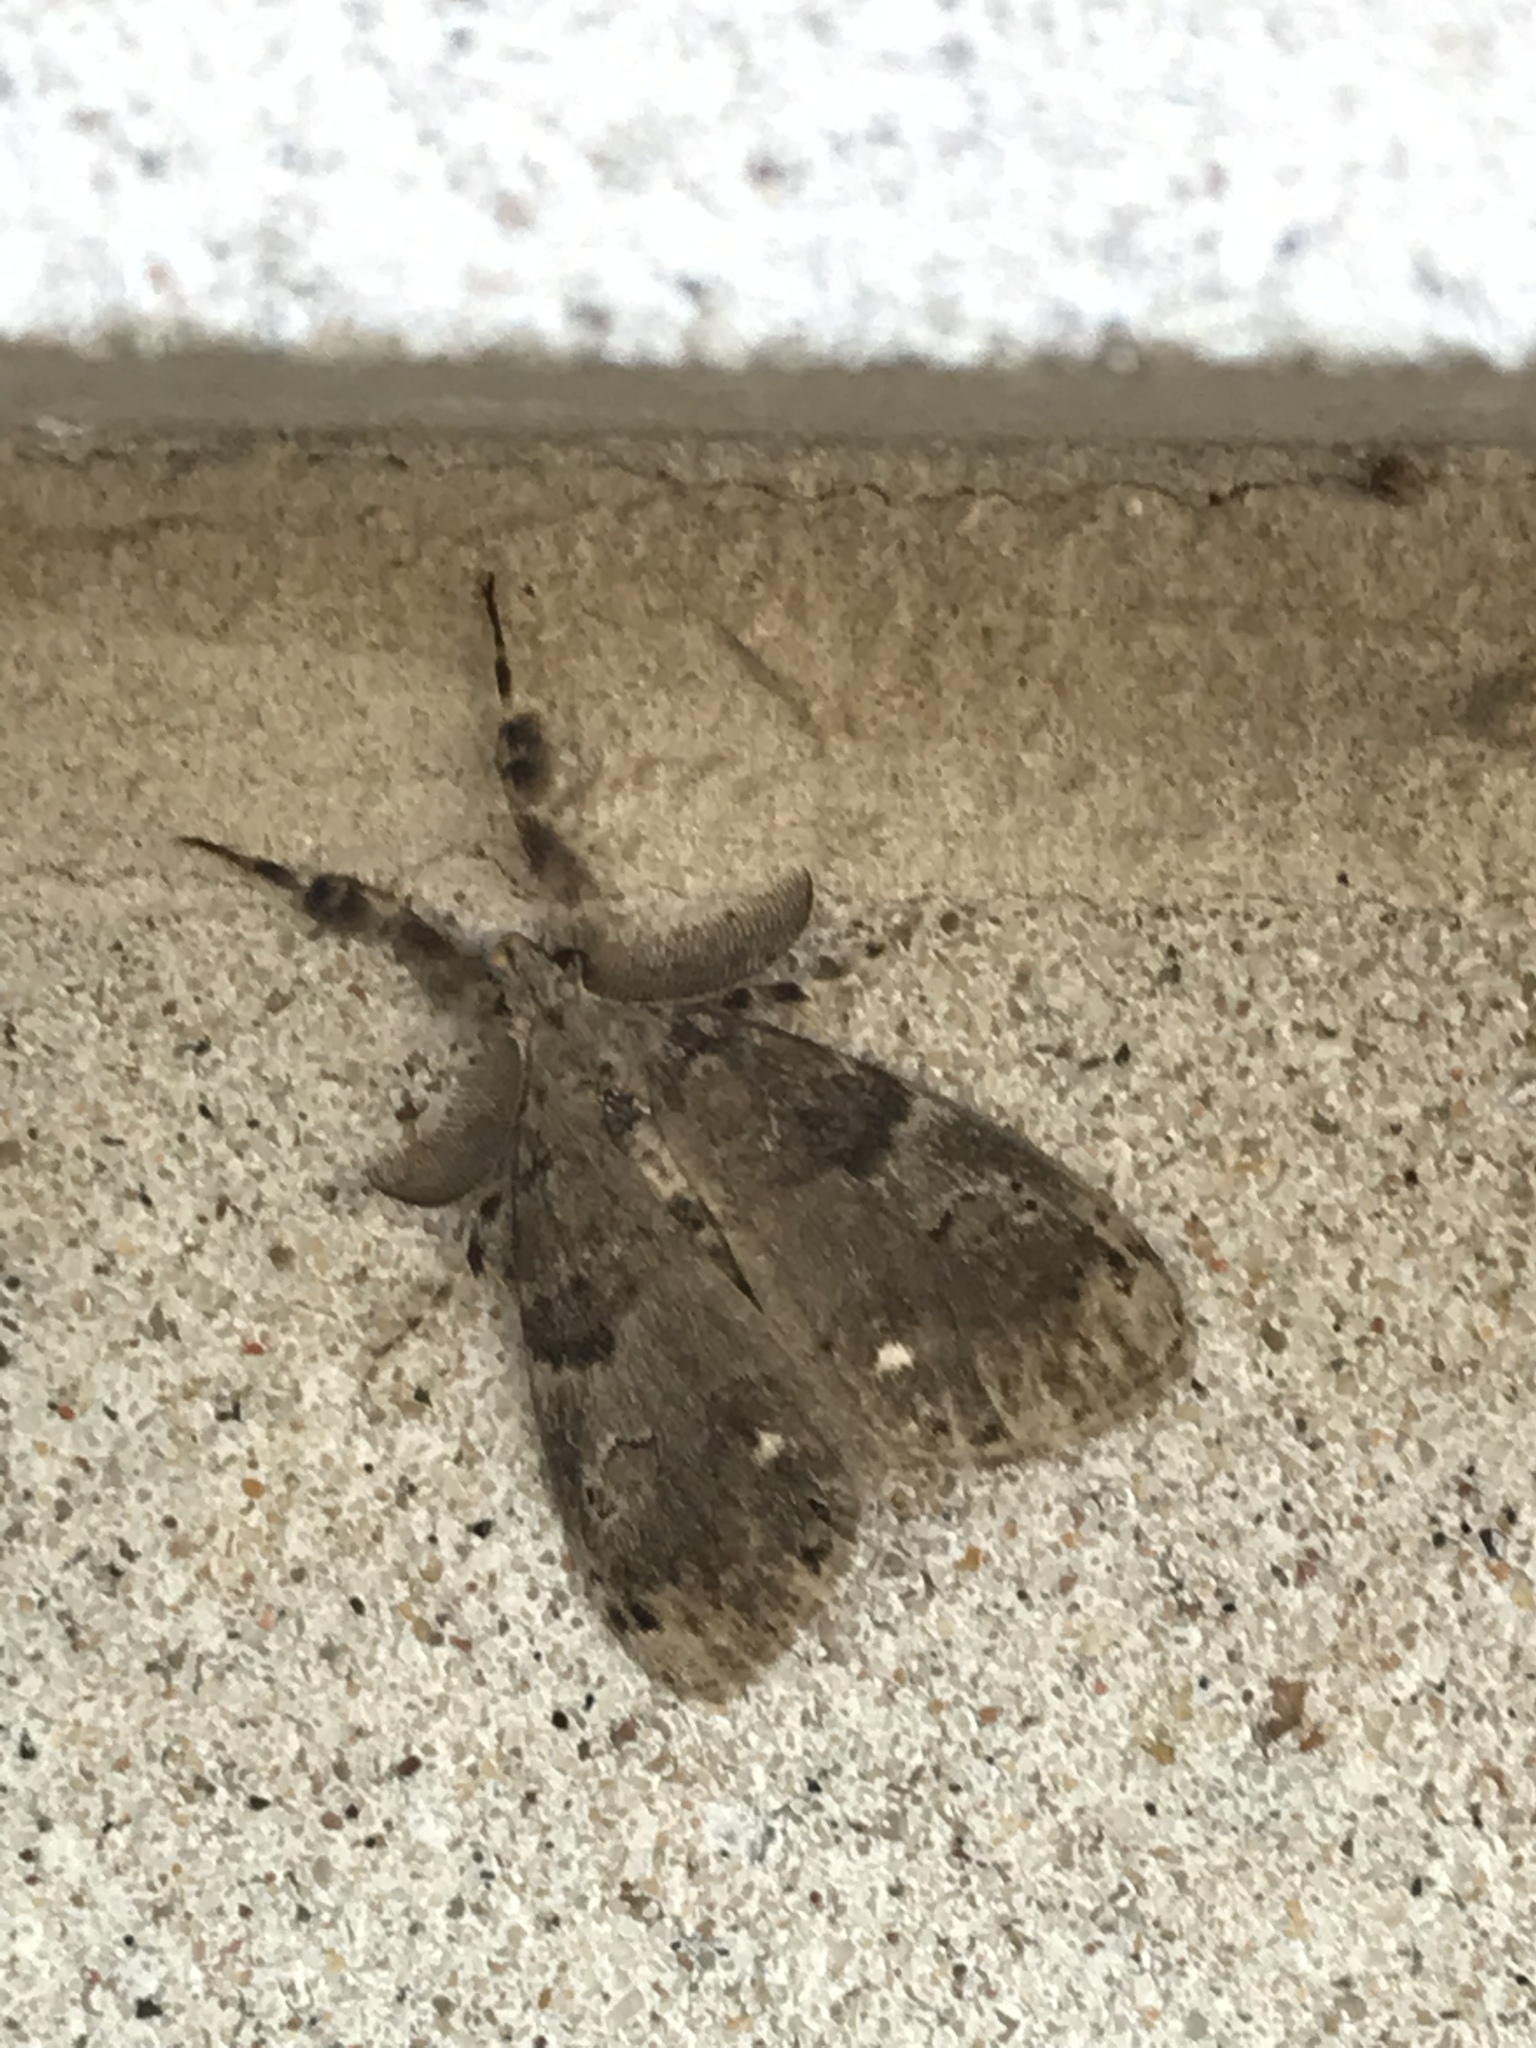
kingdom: Animalia
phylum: Arthropoda
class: Insecta
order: Lepidoptera
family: Erebidae
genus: Orgyia
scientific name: Orgyia leucostigma
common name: White-marked tussock moth
